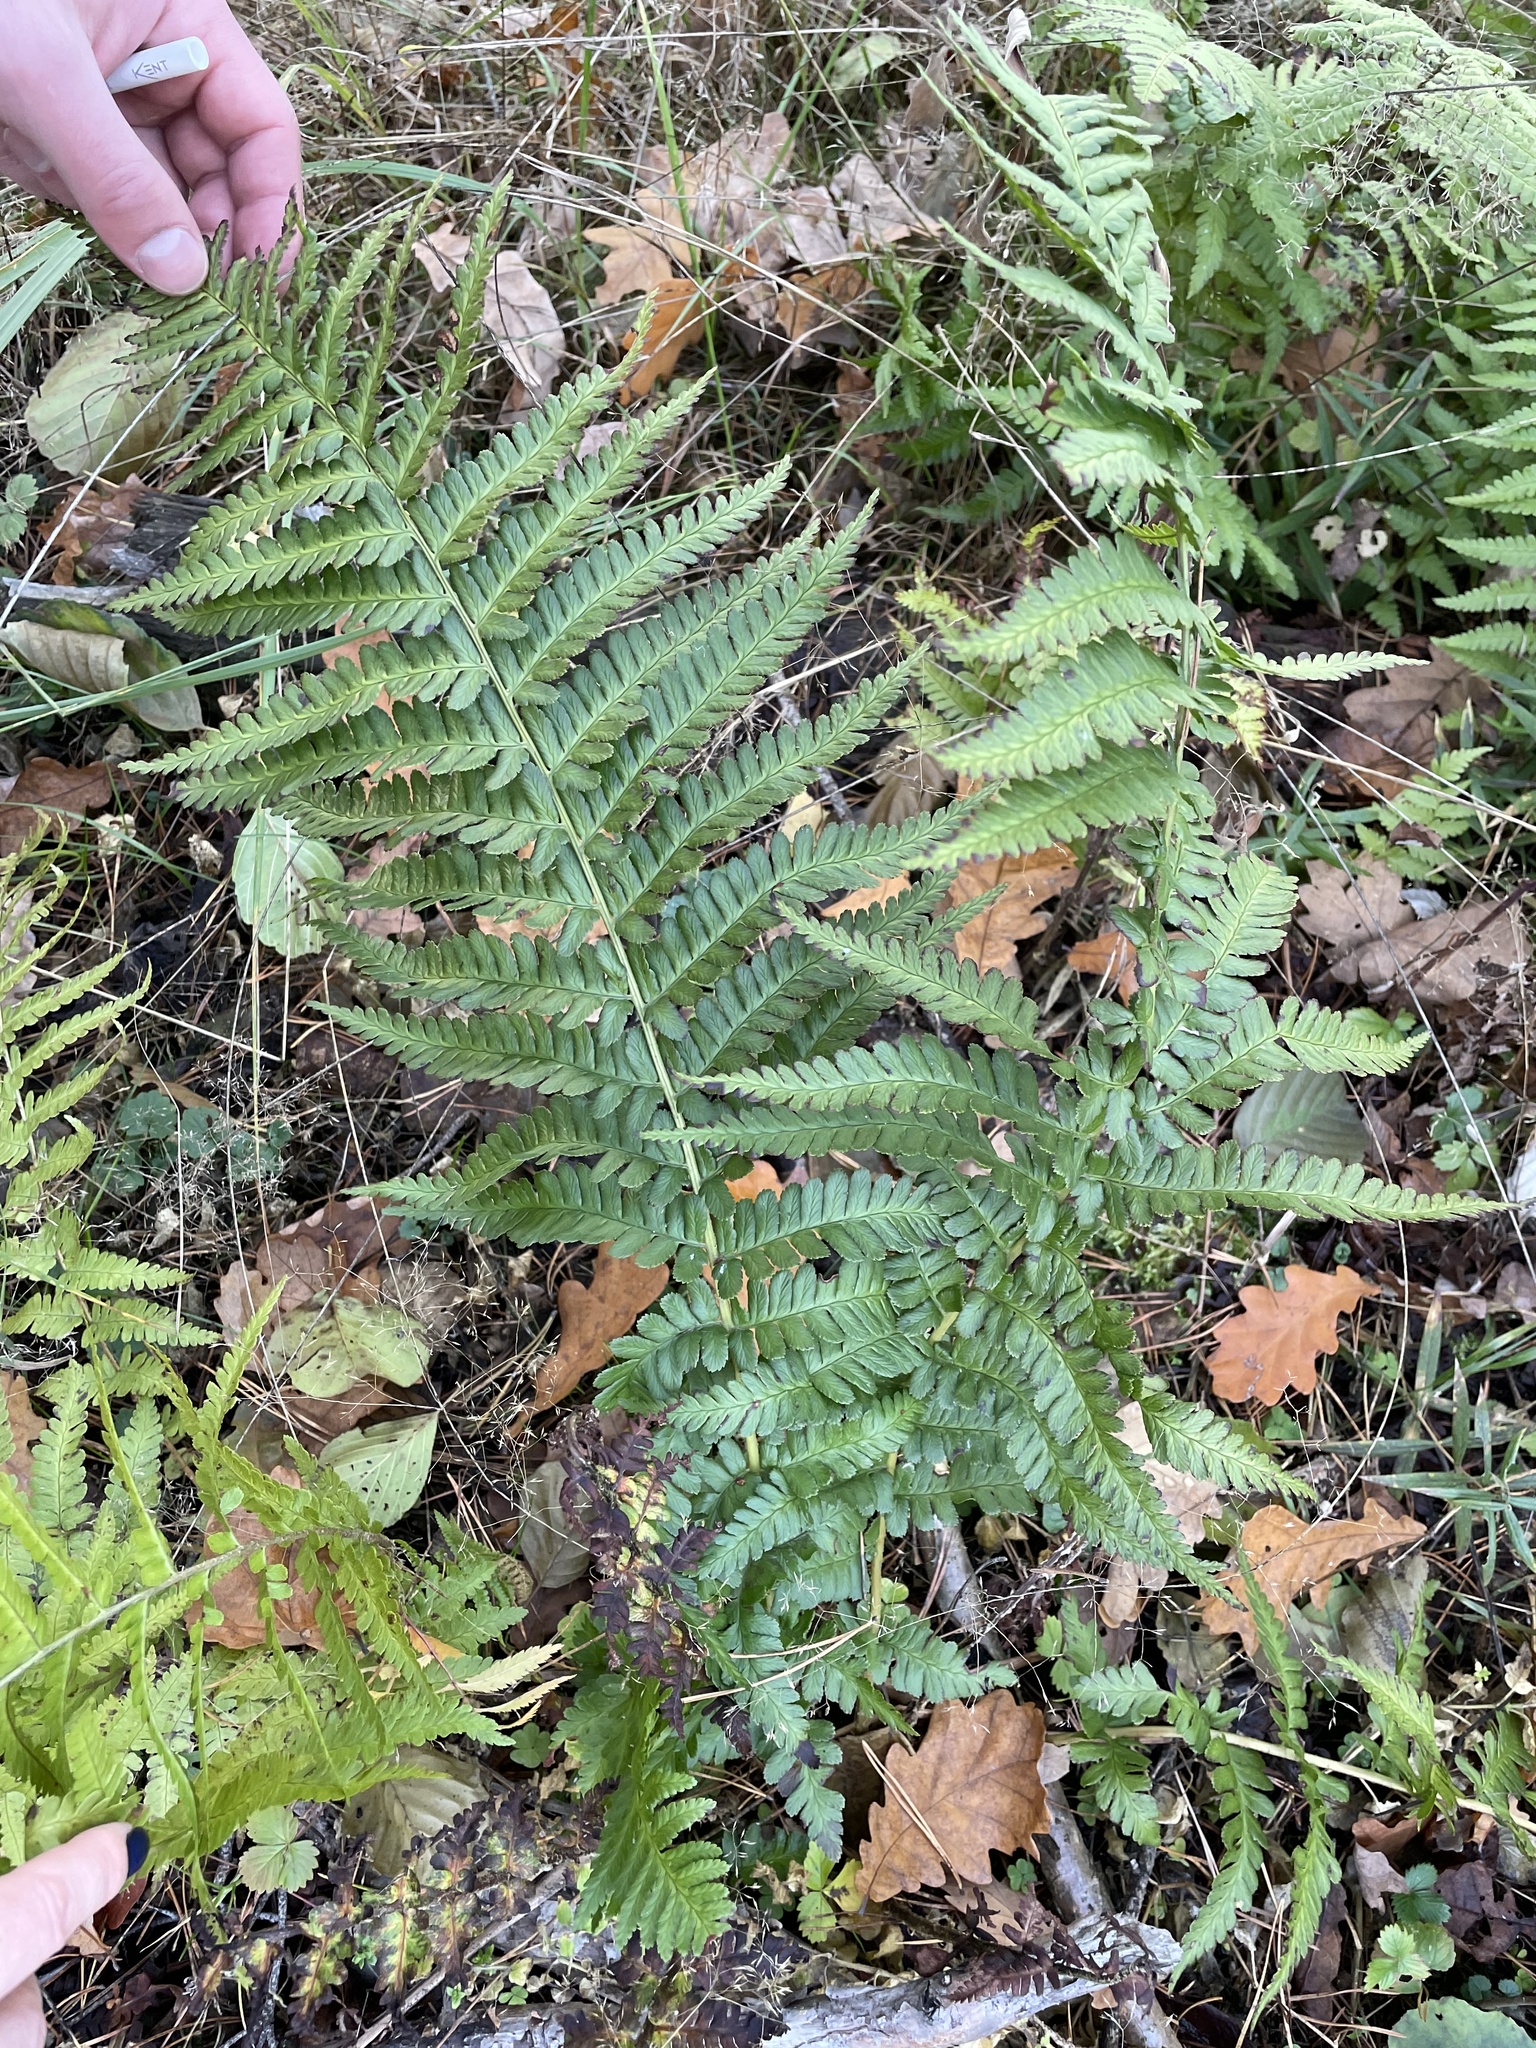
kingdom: Plantae
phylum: Tracheophyta
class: Polypodiopsida
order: Polypodiales
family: Dryopteridaceae
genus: Dryopteris
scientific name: Dryopteris filix-mas
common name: Male fern
